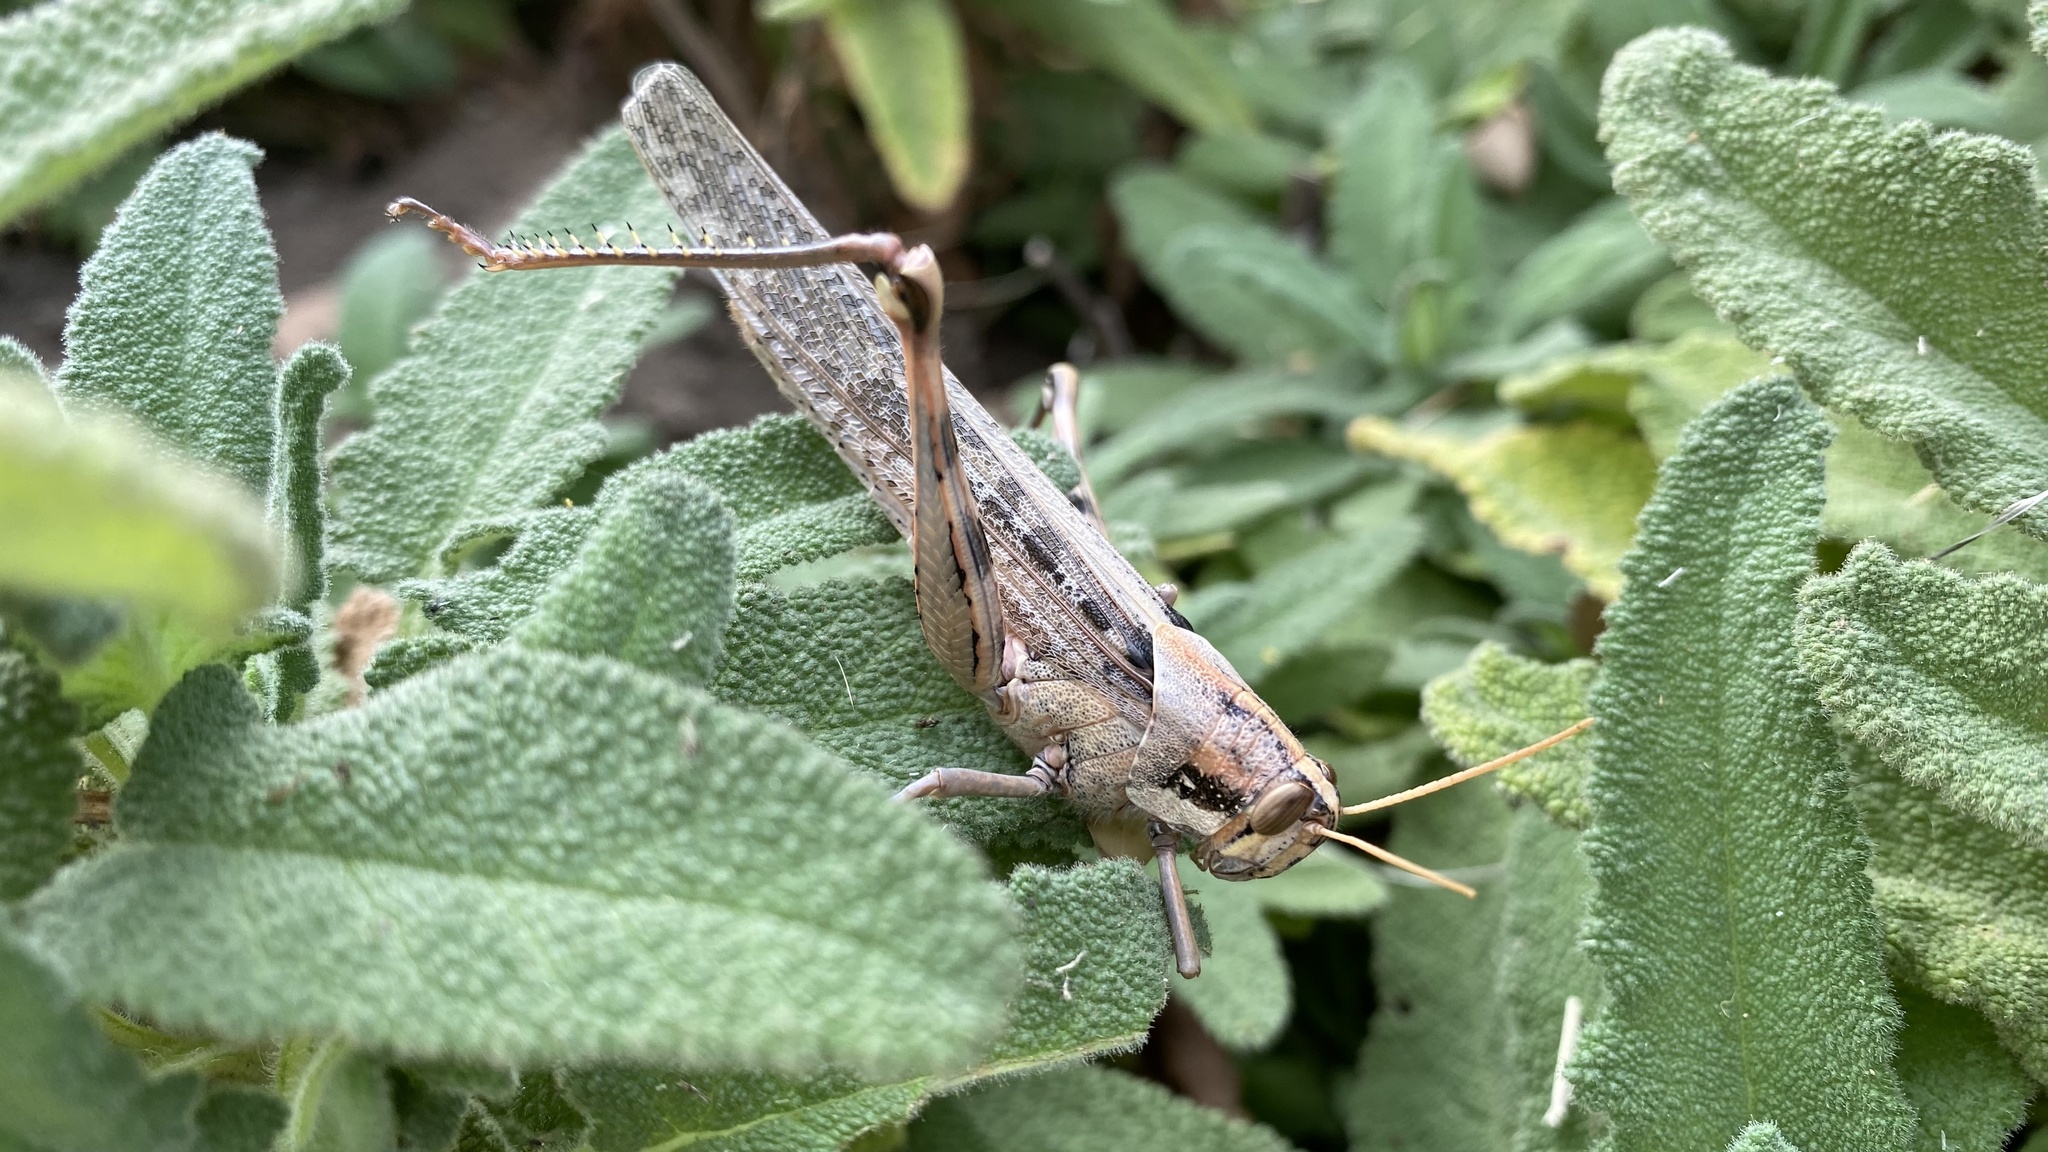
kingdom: Animalia
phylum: Arthropoda
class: Insecta
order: Orthoptera
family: Acrididae
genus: Schistocerca
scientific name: Schistocerca nitens
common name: Vagrant grasshopper
